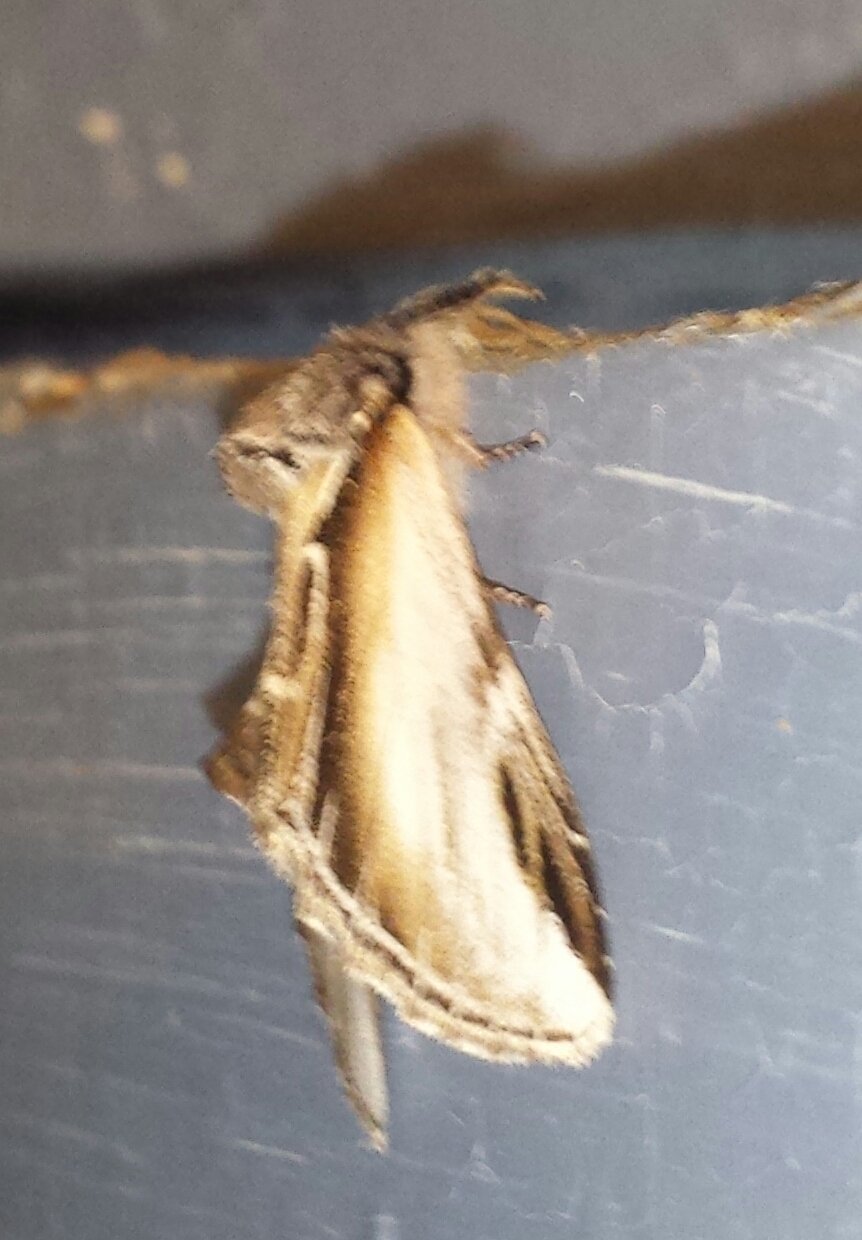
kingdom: Animalia
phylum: Arthropoda
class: Insecta
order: Lepidoptera
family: Notodontidae
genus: Pheosia
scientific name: Pheosia rimosa
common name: Black-rimmed prominent
